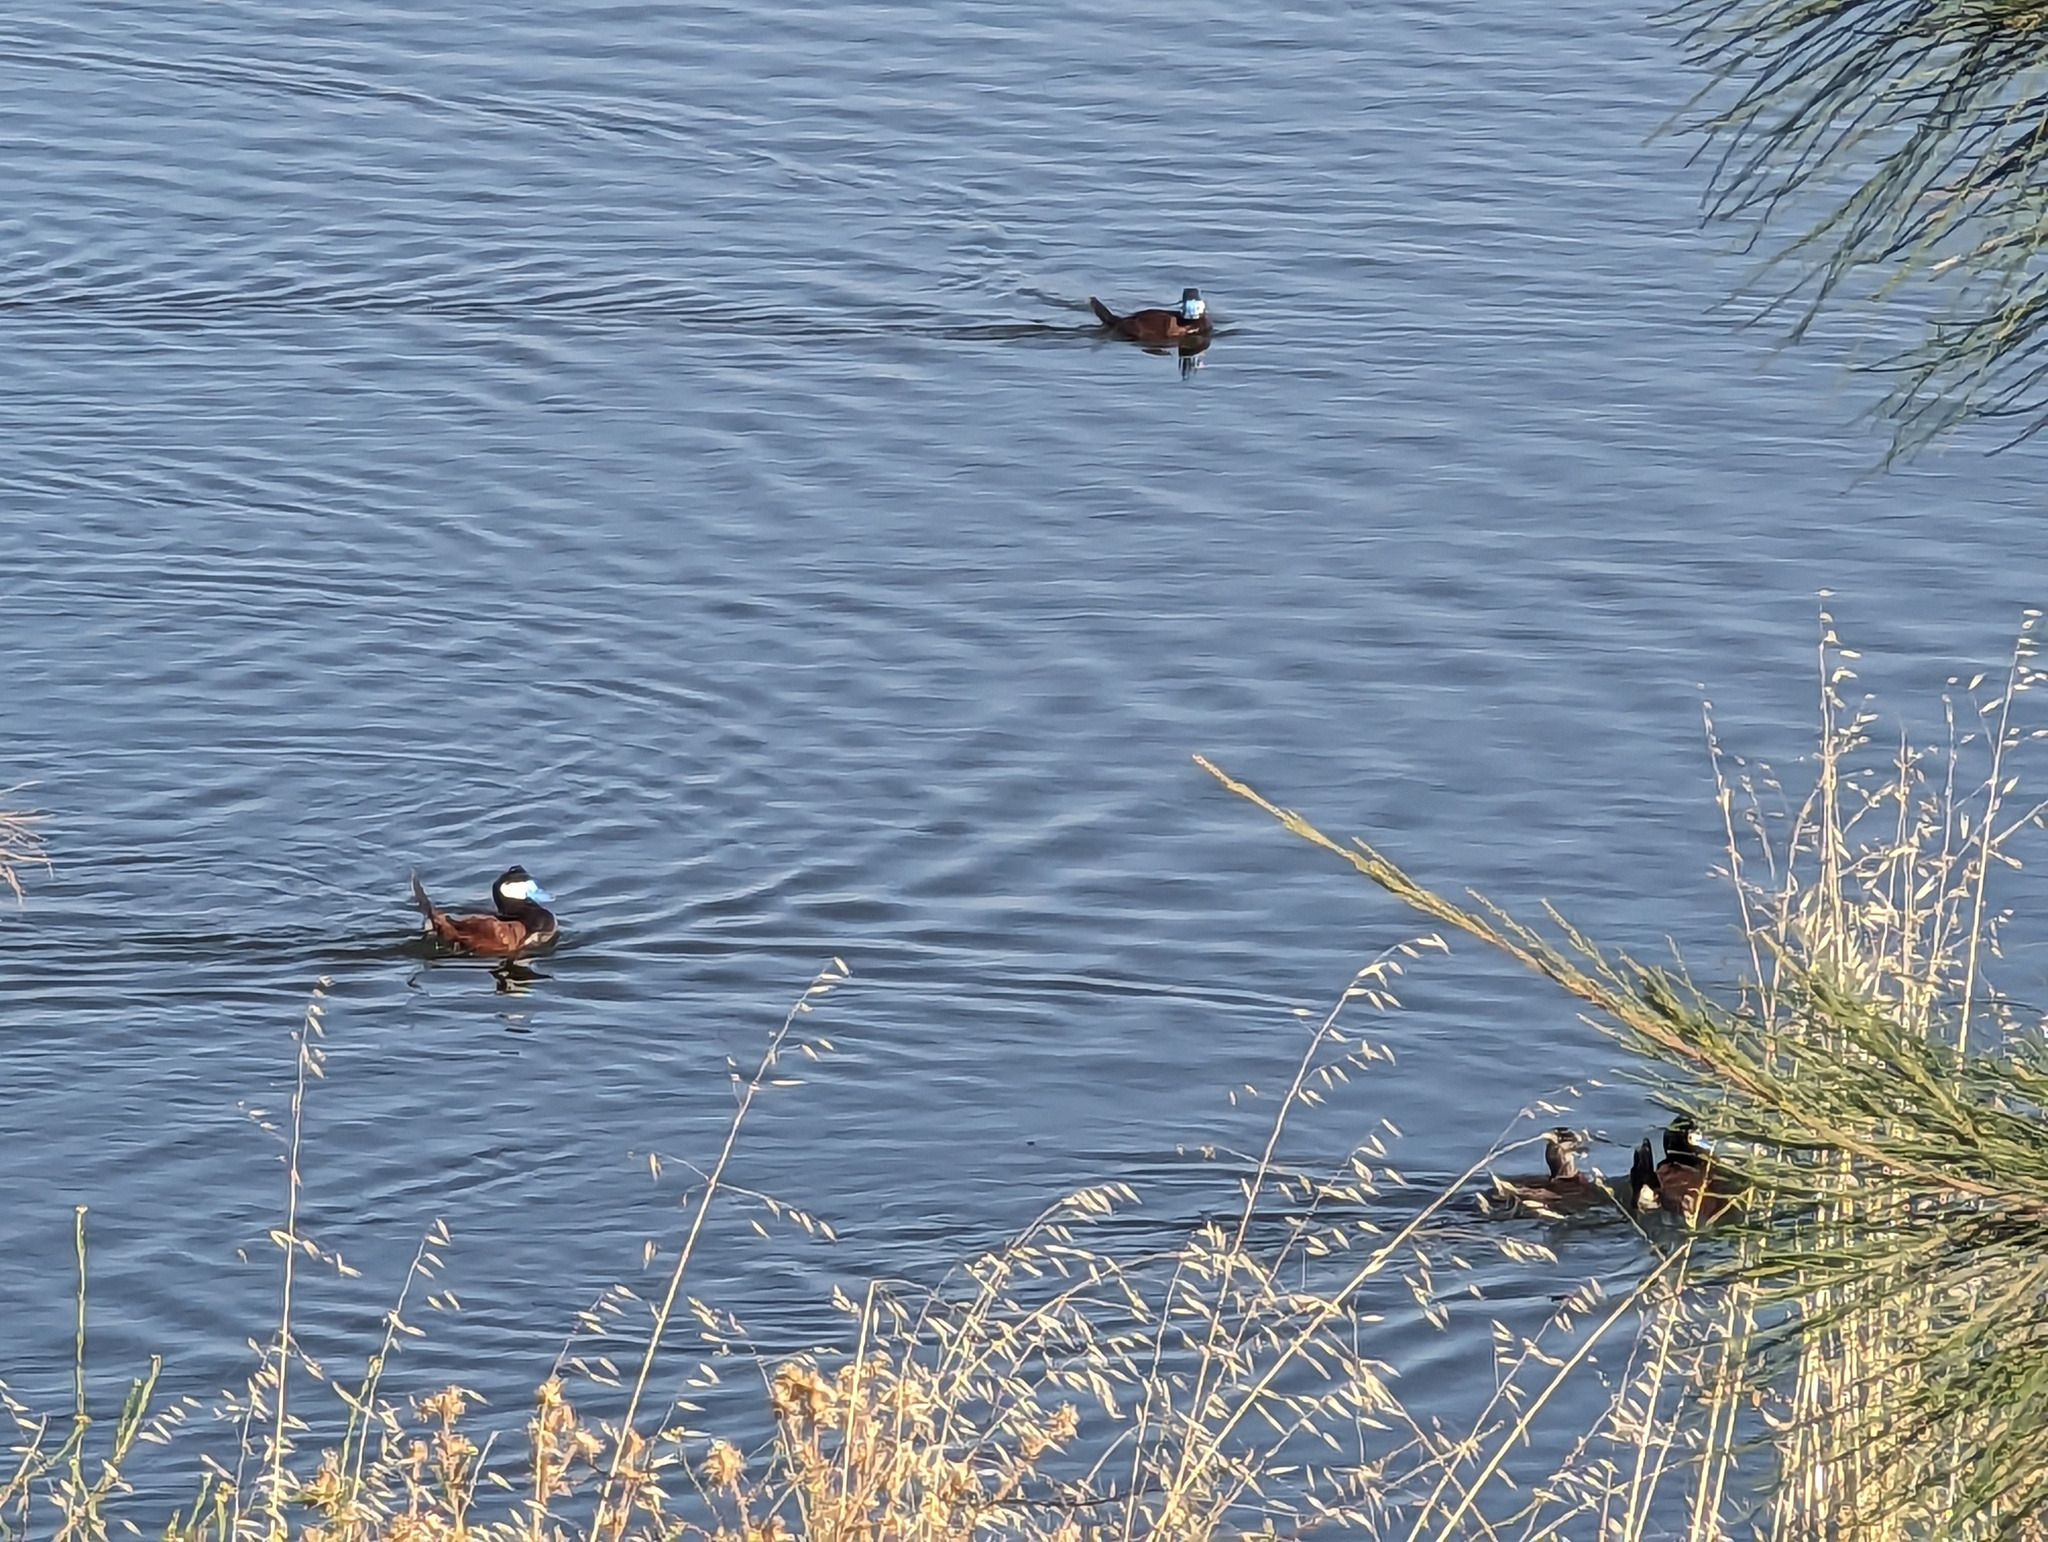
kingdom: Animalia
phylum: Chordata
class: Aves
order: Anseriformes
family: Anatidae
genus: Oxyura
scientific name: Oxyura jamaicensis
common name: Ruddy duck
